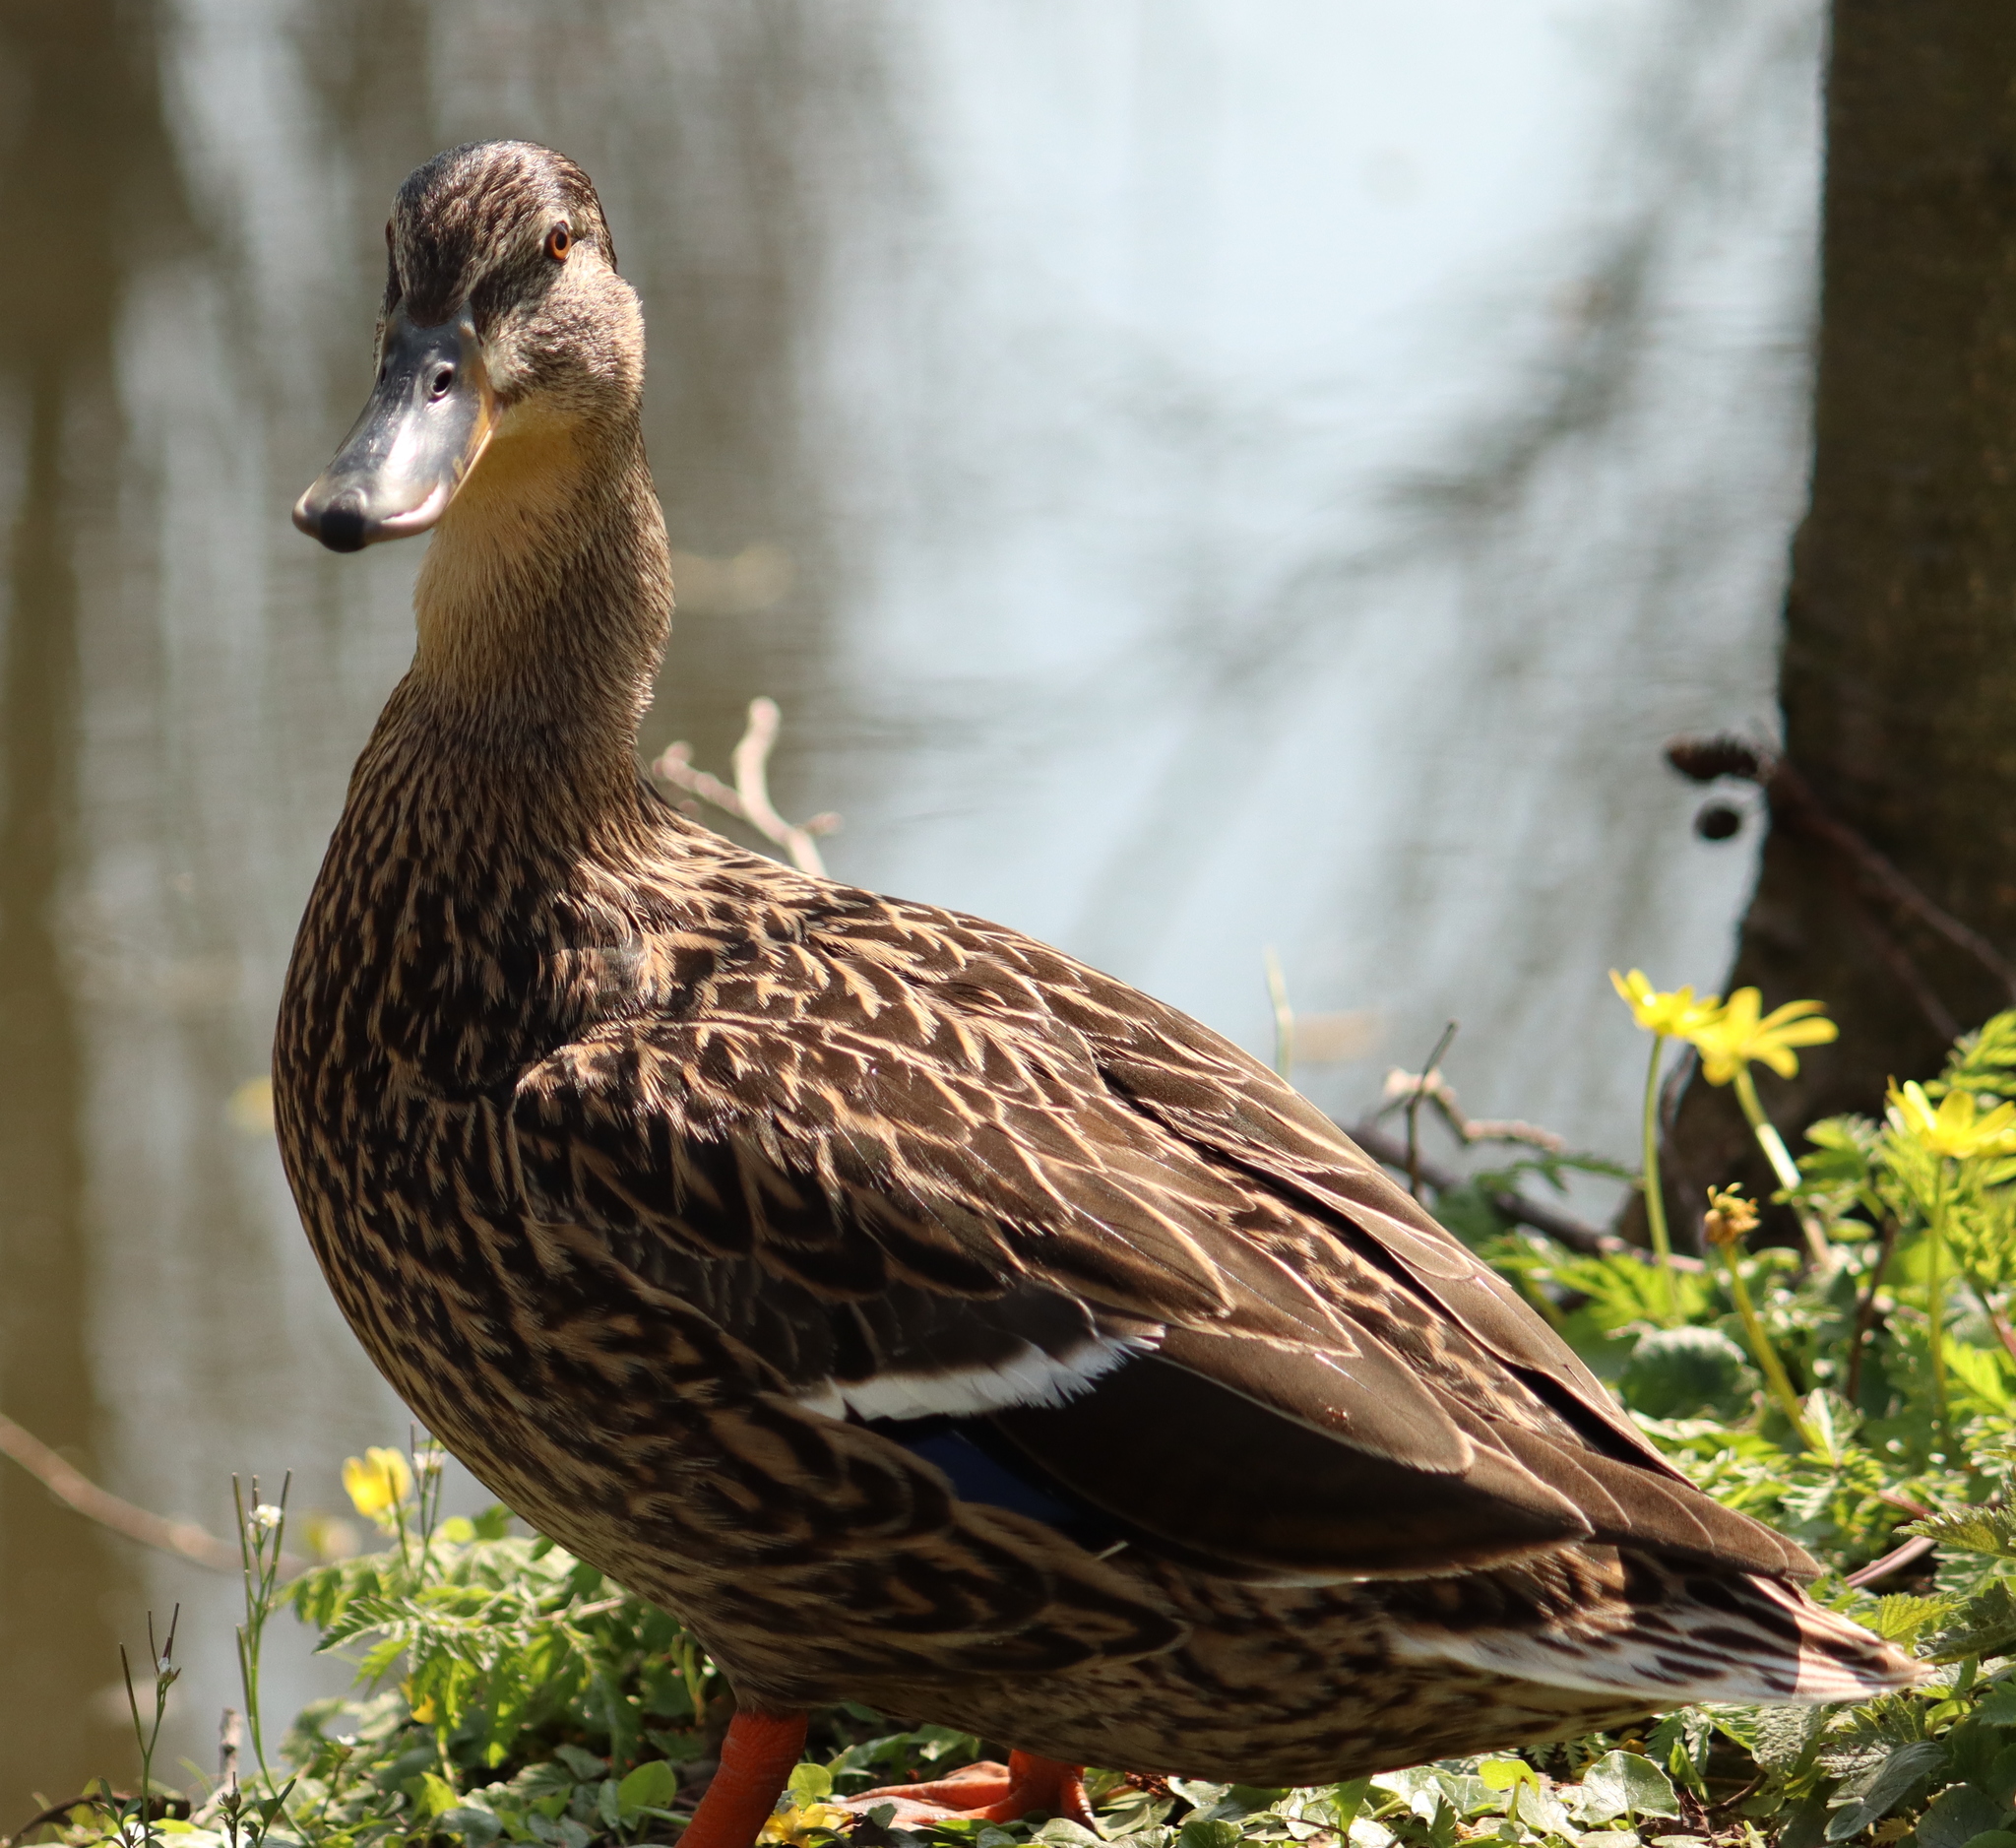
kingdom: Animalia
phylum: Chordata
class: Aves
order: Anseriformes
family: Anatidae
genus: Anas
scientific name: Anas platyrhynchos
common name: Mallard
